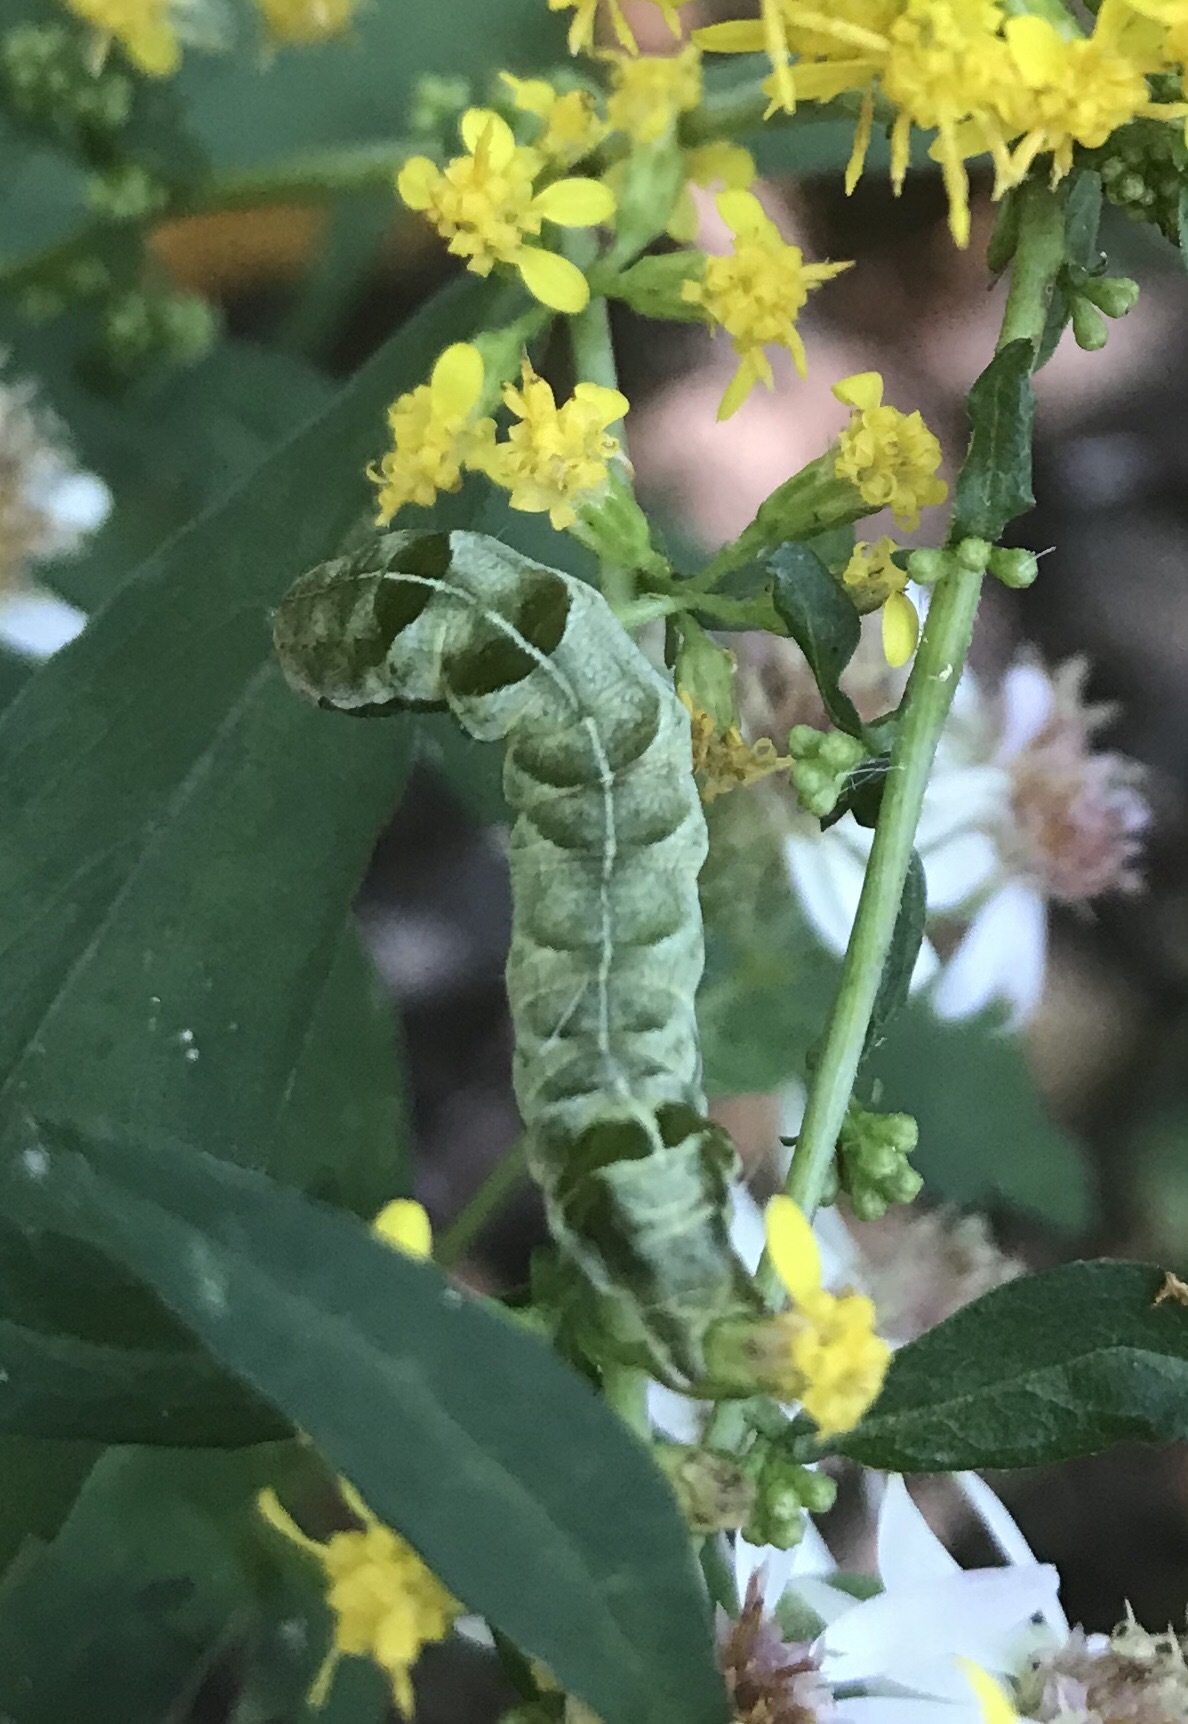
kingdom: Animalia
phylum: Arthropoda
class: Insecta
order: Lepidoptera
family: Noctuidae
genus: Melanchra
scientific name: Melanchra adjuncta
